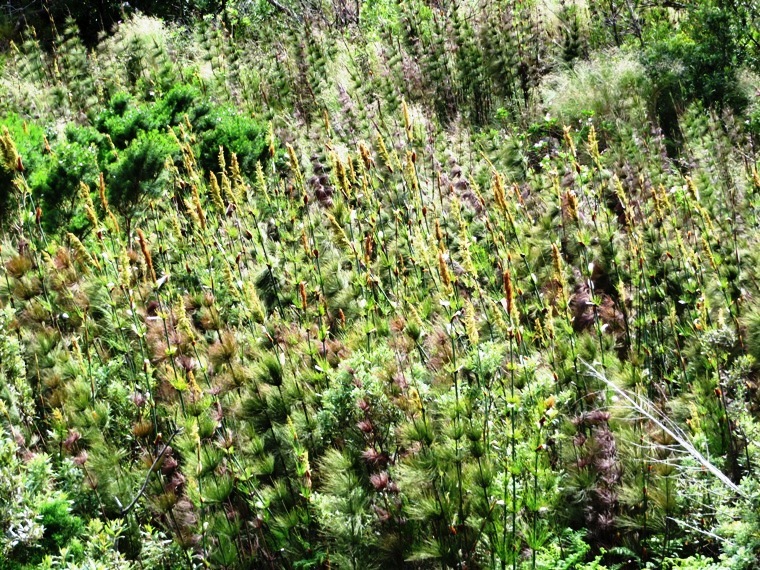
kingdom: Plantae
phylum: Tracheophyta
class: Liliopsida
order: Poales
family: Restionaceae
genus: Elegia
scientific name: Elegia capensis
